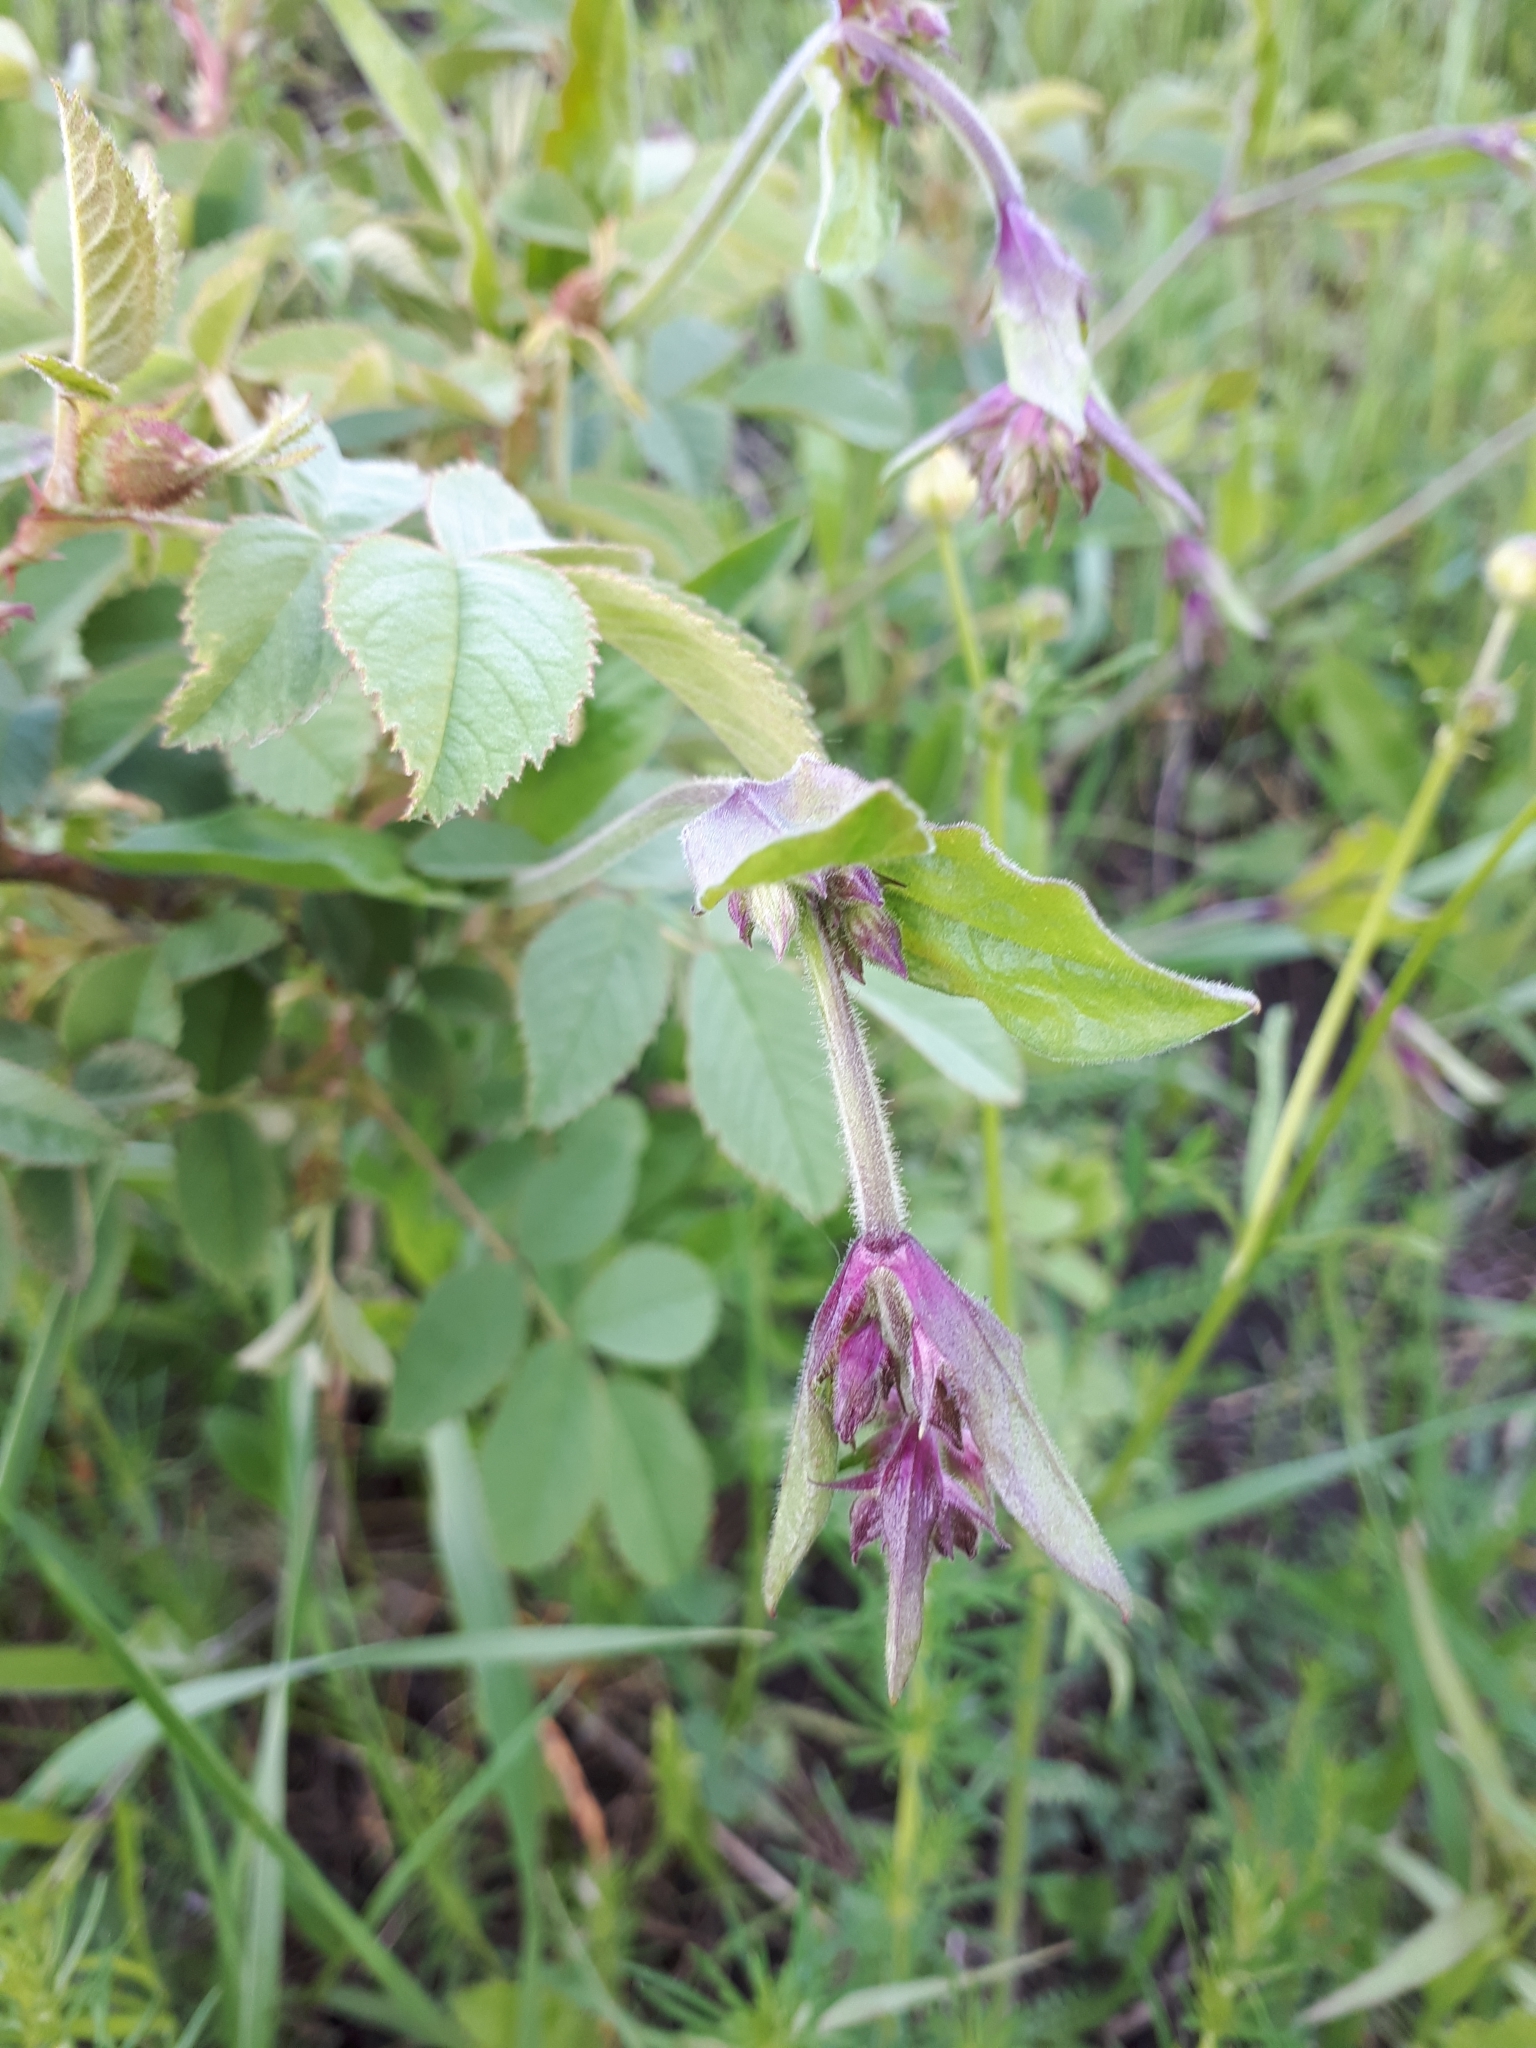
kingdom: Plantae
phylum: Tracheophyta
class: Magnoliopsida
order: Rosales
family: Rosaceae
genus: Rosa
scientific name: Rosa majalis
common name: Cinnamon rose
